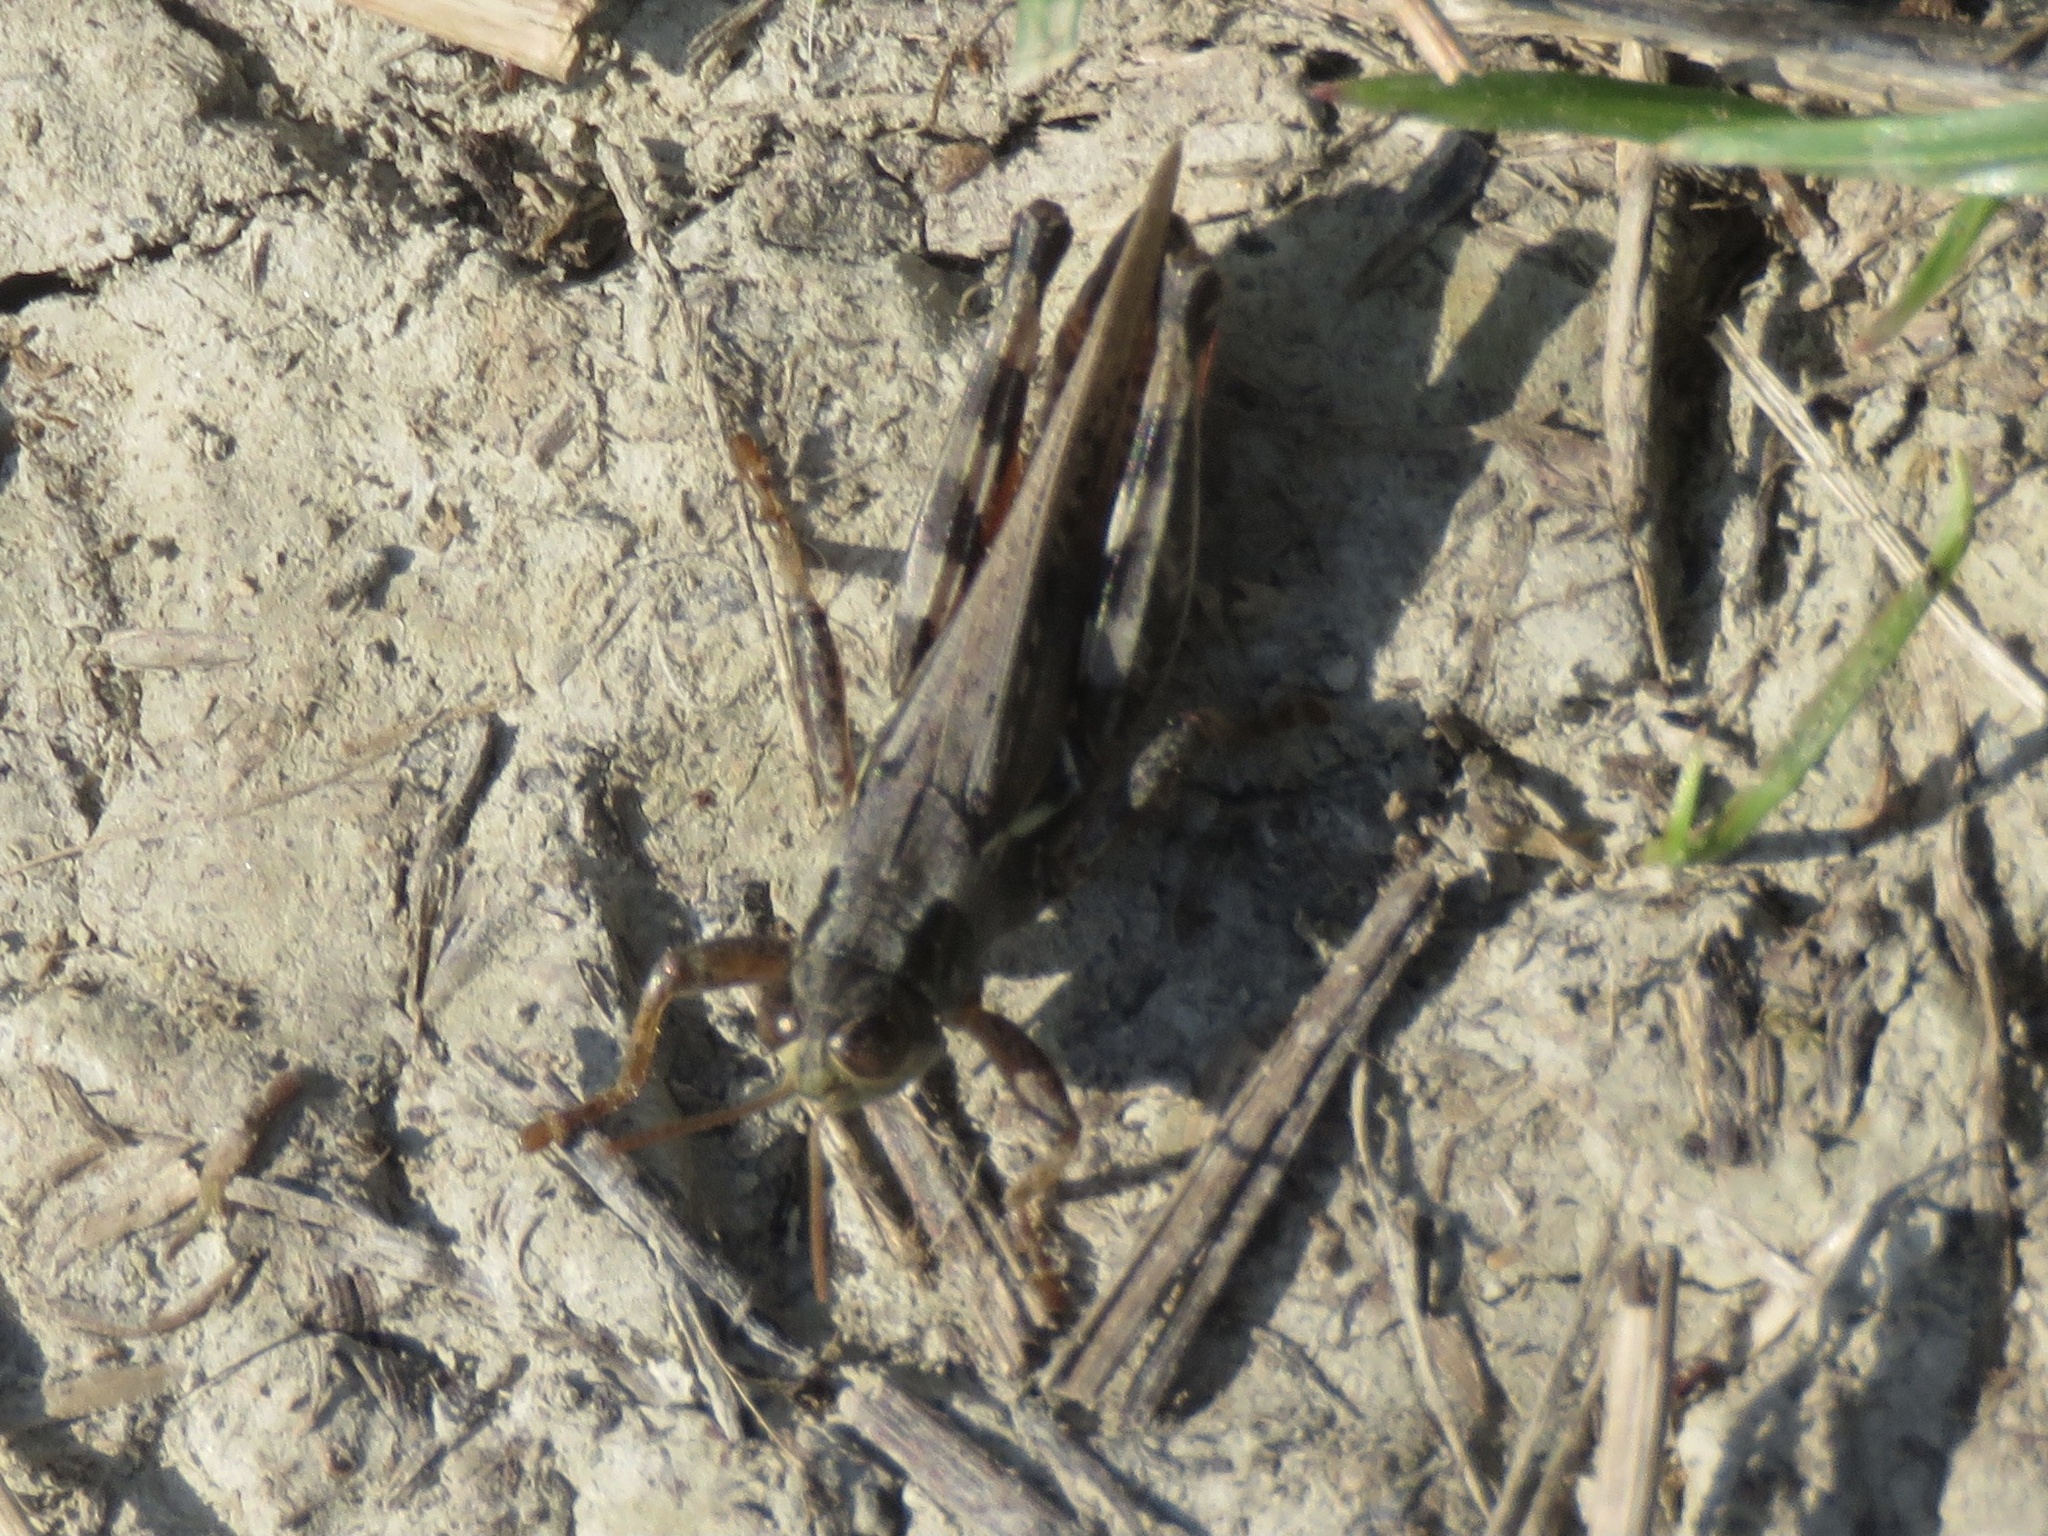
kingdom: Animalia
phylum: Arthropoda
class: Insecta
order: Orthoptera
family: Acrididae
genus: Melanoplus
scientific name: Melanoplus sanguinipes
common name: Migratory grasshopper
